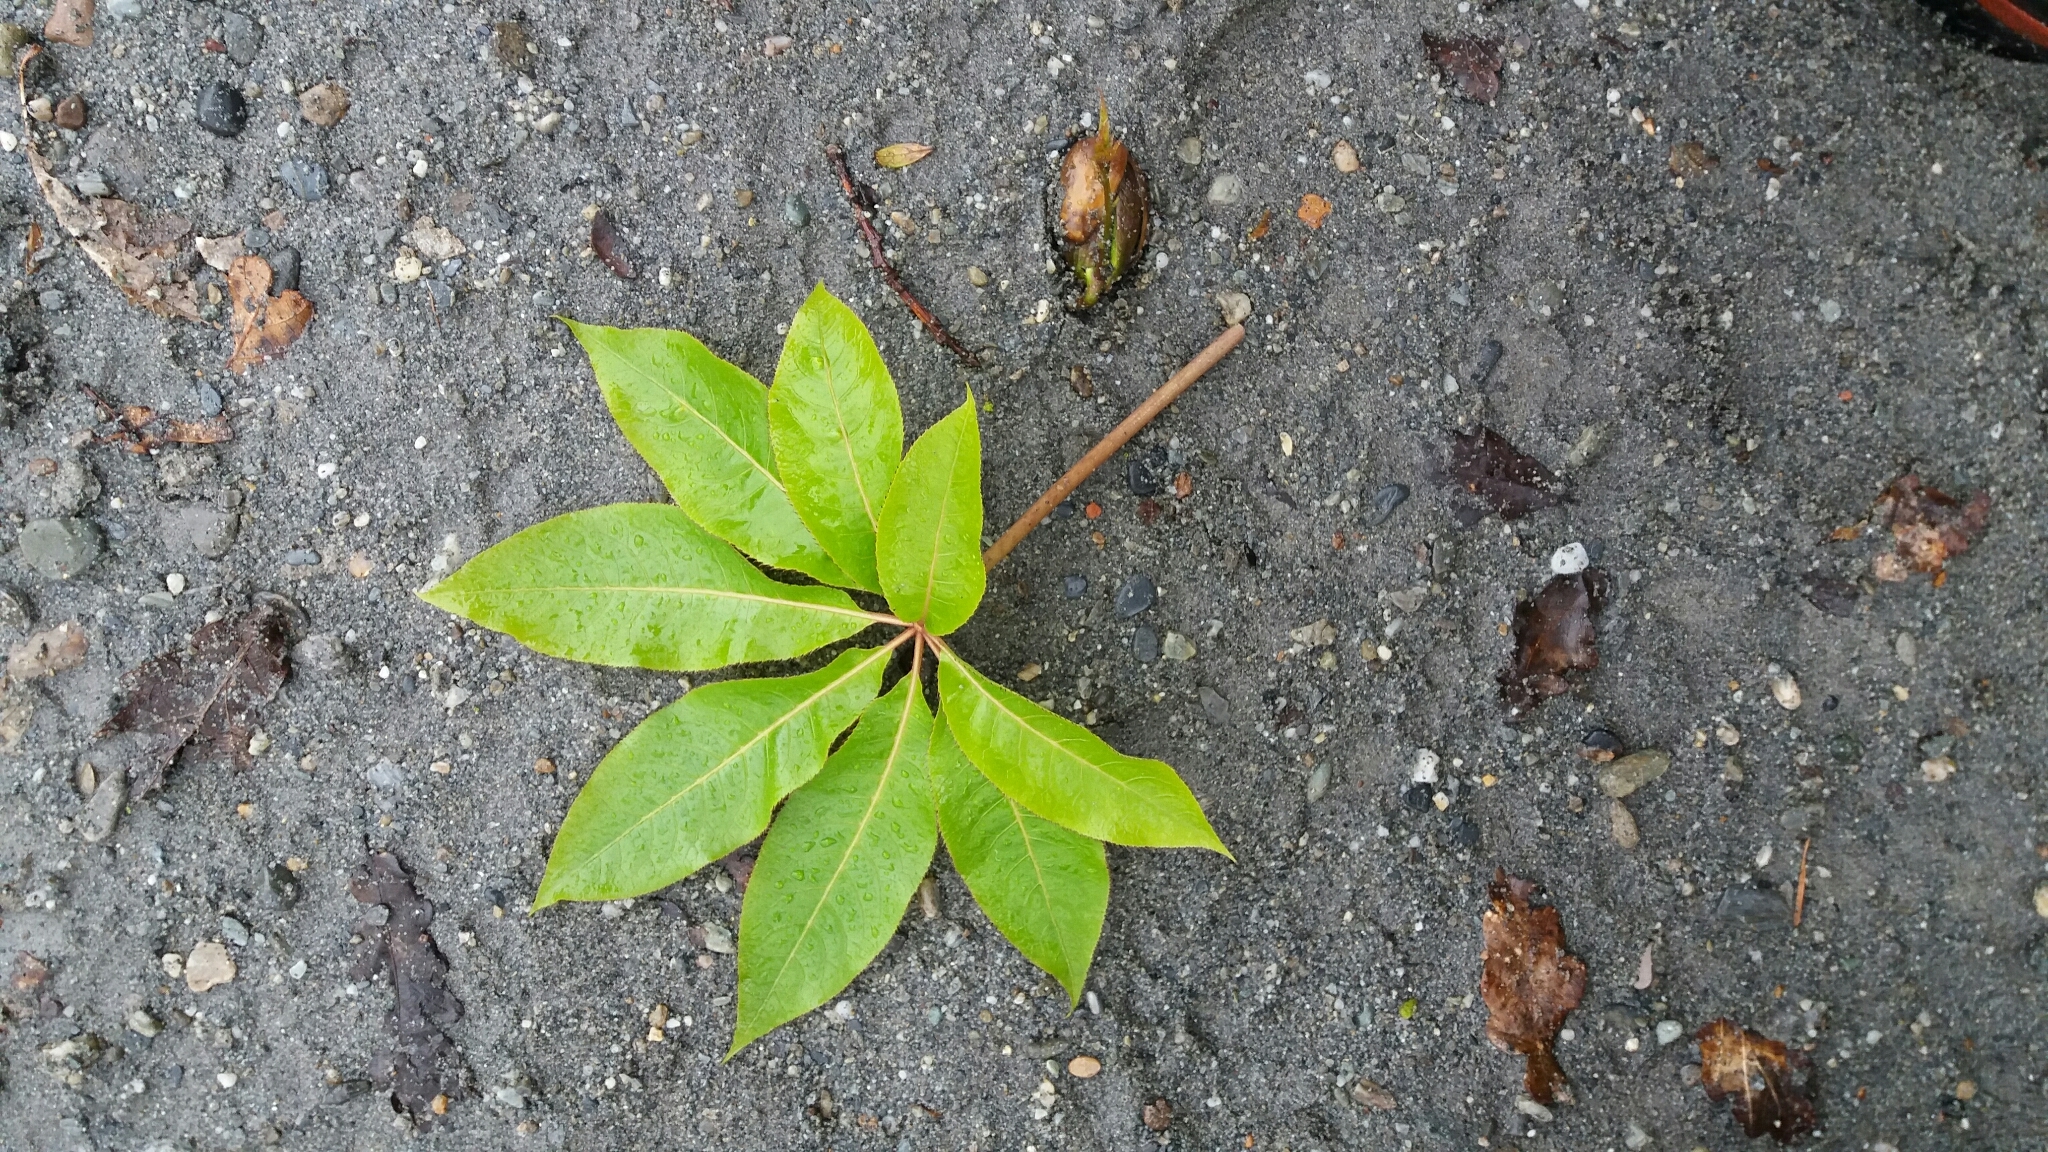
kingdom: Plantae
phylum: Tracheophyta
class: Magnoliopsida
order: Apiales
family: Araliaceae
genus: Schefflera
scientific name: Schefflera digitata
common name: Pate
